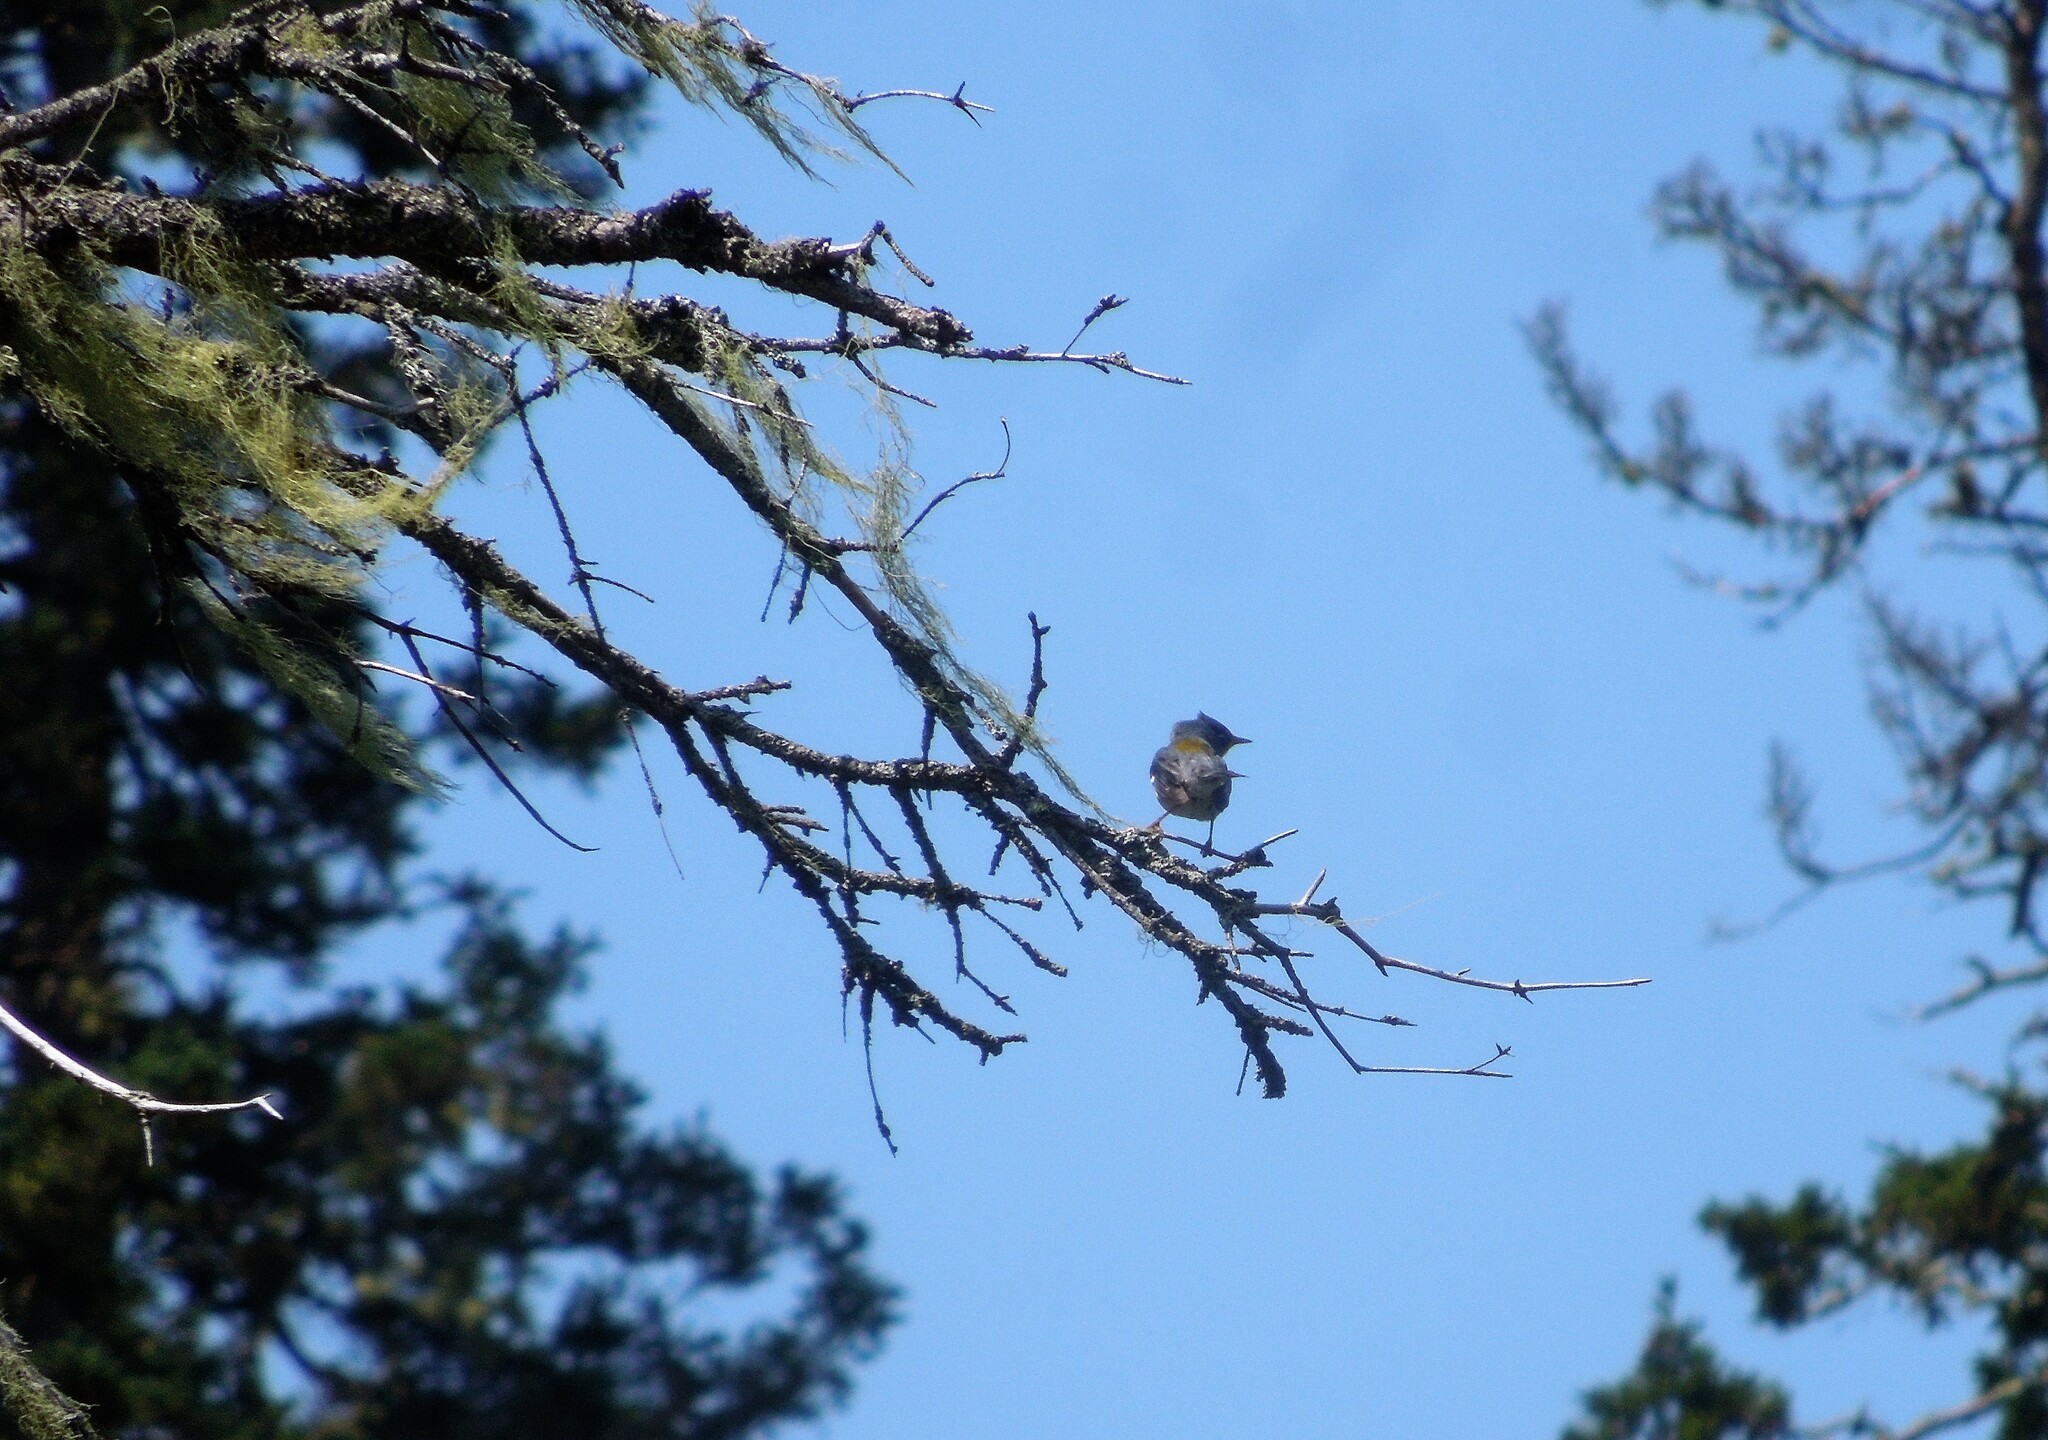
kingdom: Animalia
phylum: Chordata
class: Aves
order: Passeriformes
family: Parulidae
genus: Setophaga
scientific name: Setophaga americana
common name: Northern parula
